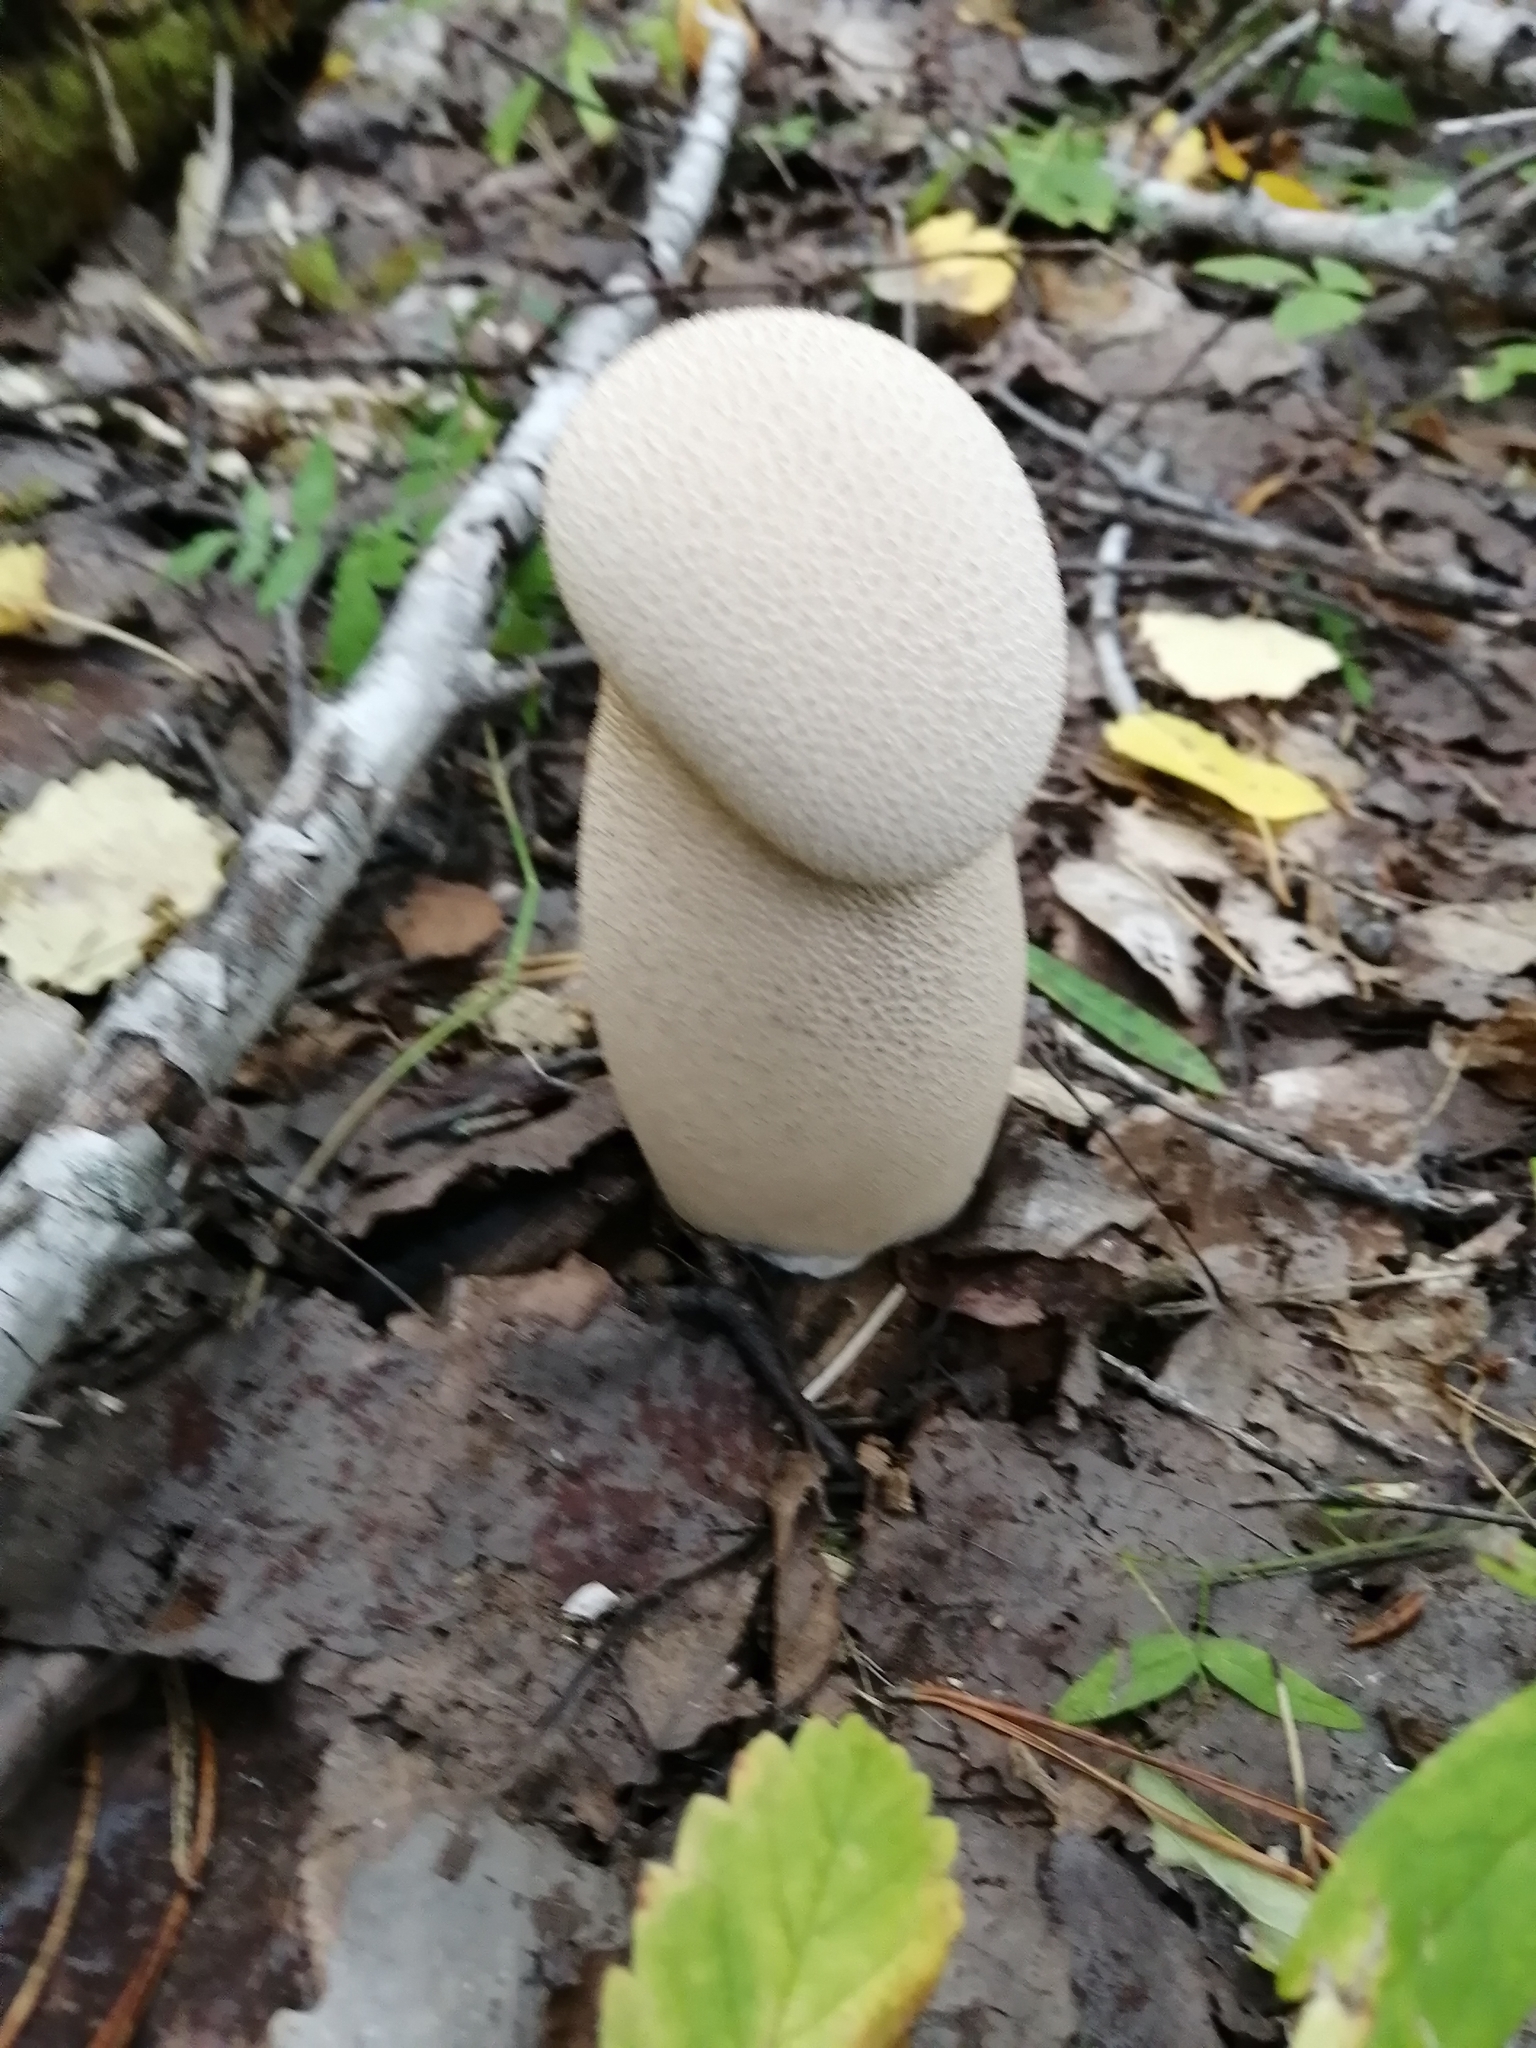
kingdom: Fungi
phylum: Basidiomycota
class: Agaricomycetes
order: Agaricales
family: Lycoperdaceae
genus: Lycoperdon
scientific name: Lycoperdon excipuliforme
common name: Pestle puffball
